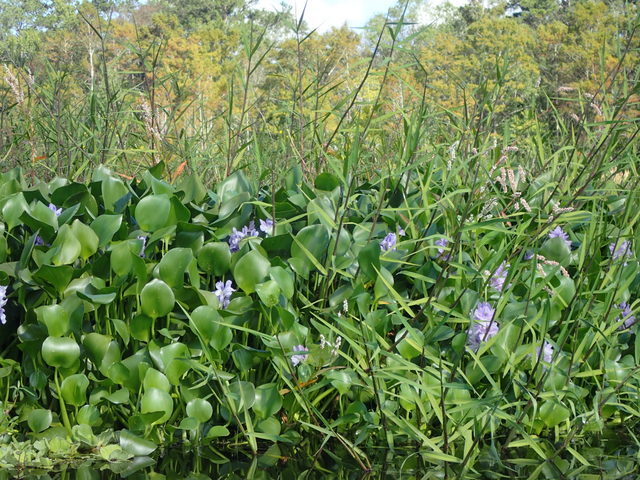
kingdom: Plantae
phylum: Tracheophyta
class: Liliopsida
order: Commelinales
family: Pontederiaceae
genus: Pontederia
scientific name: Pontederia crassipes
